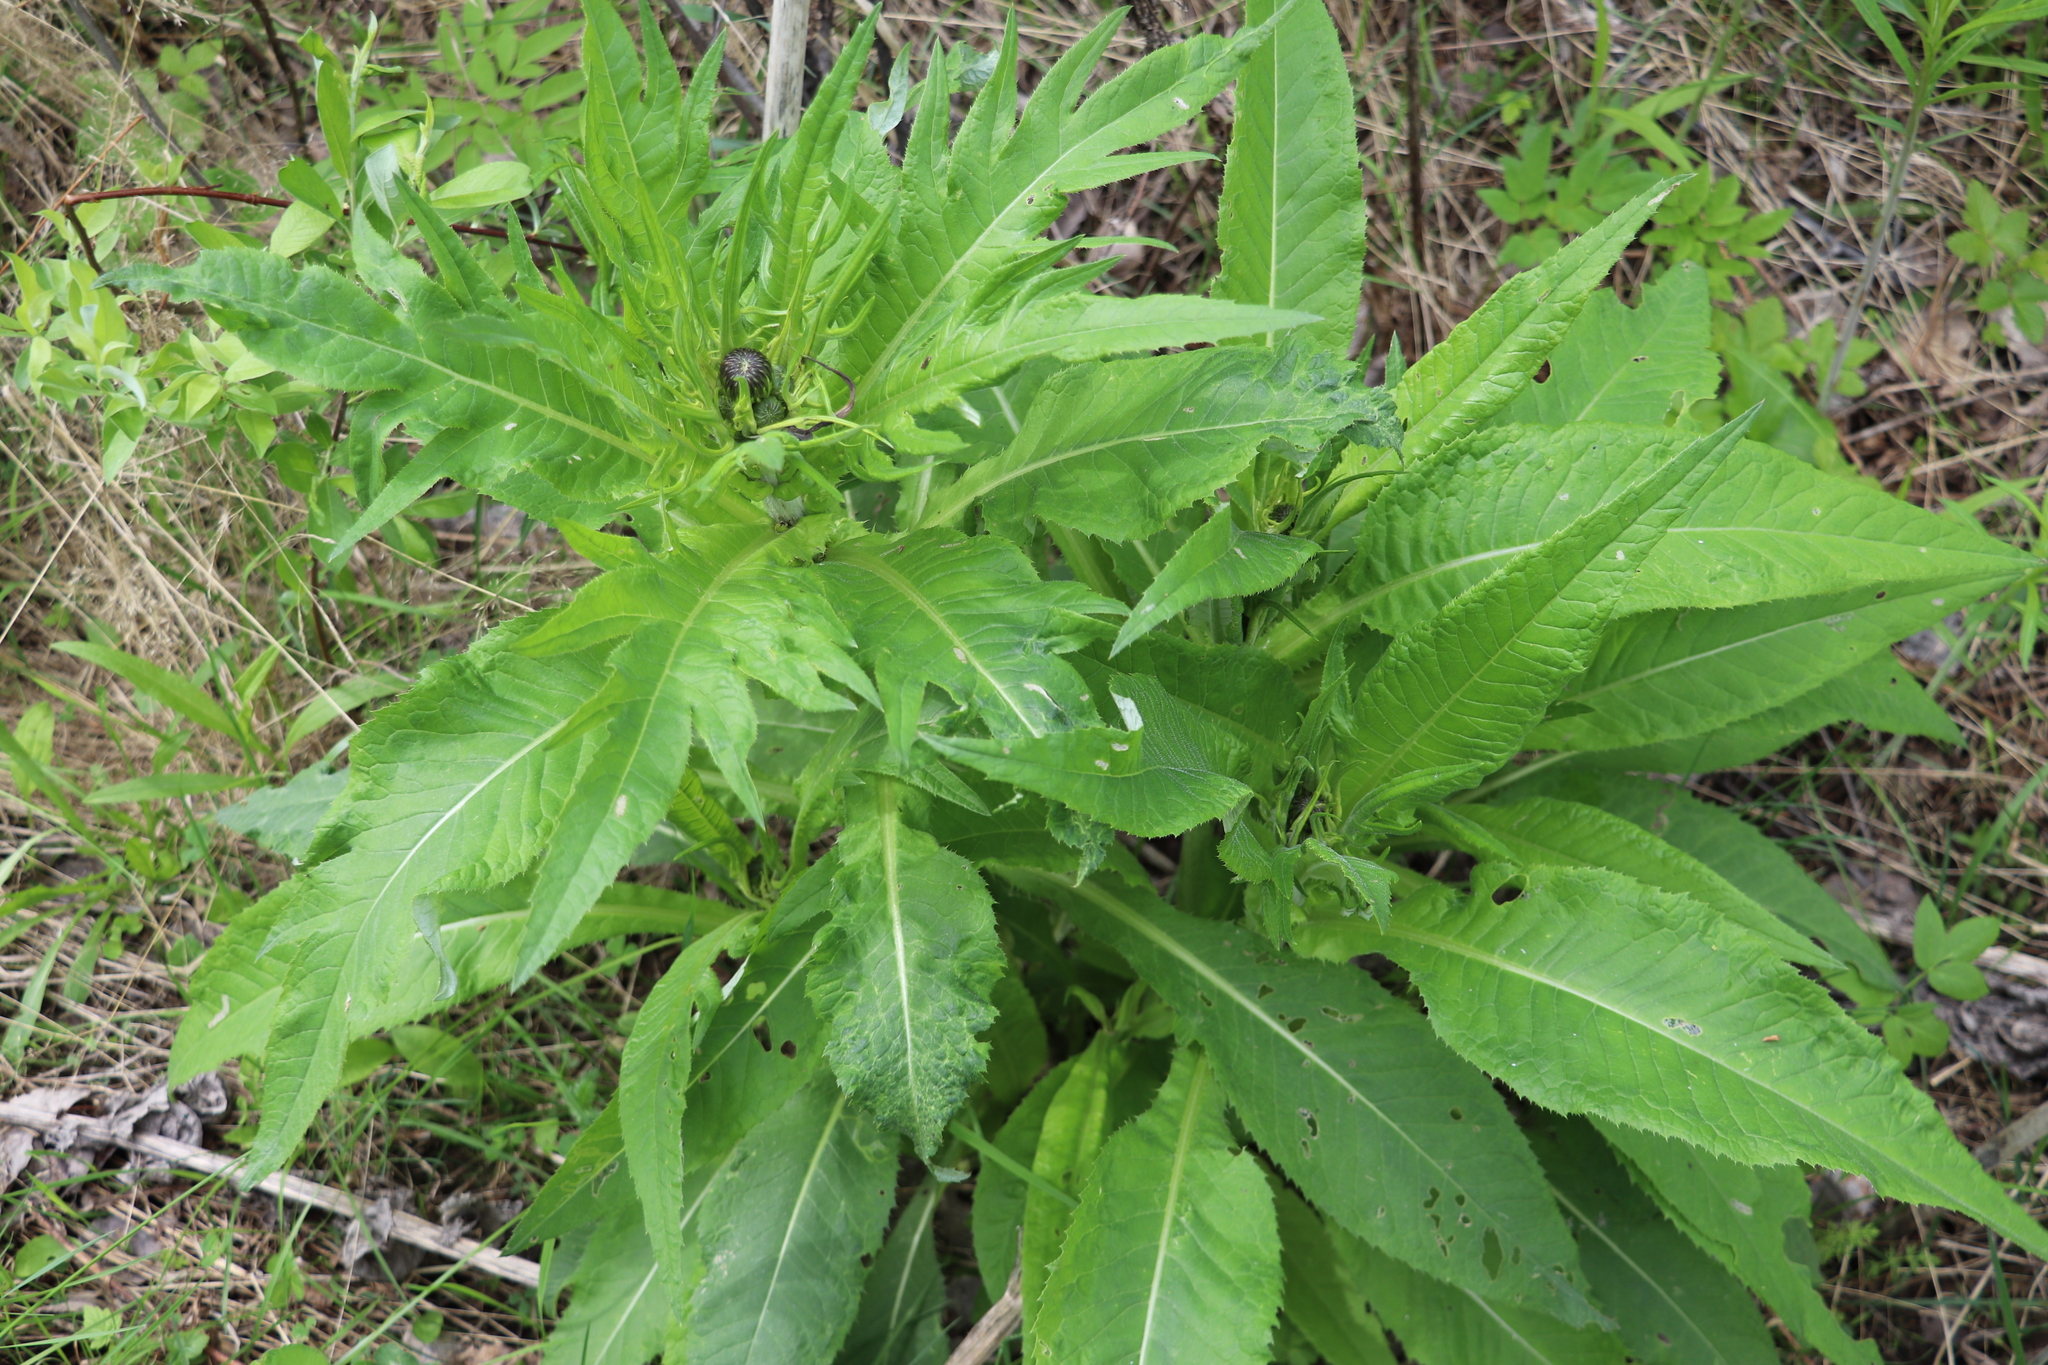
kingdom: Plantae
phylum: Tracheophyta
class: Magnoliopsida
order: Asterales
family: Asteraceae
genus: Cirsium
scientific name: Cirsium heterophyllum
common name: Melancholy thistle
